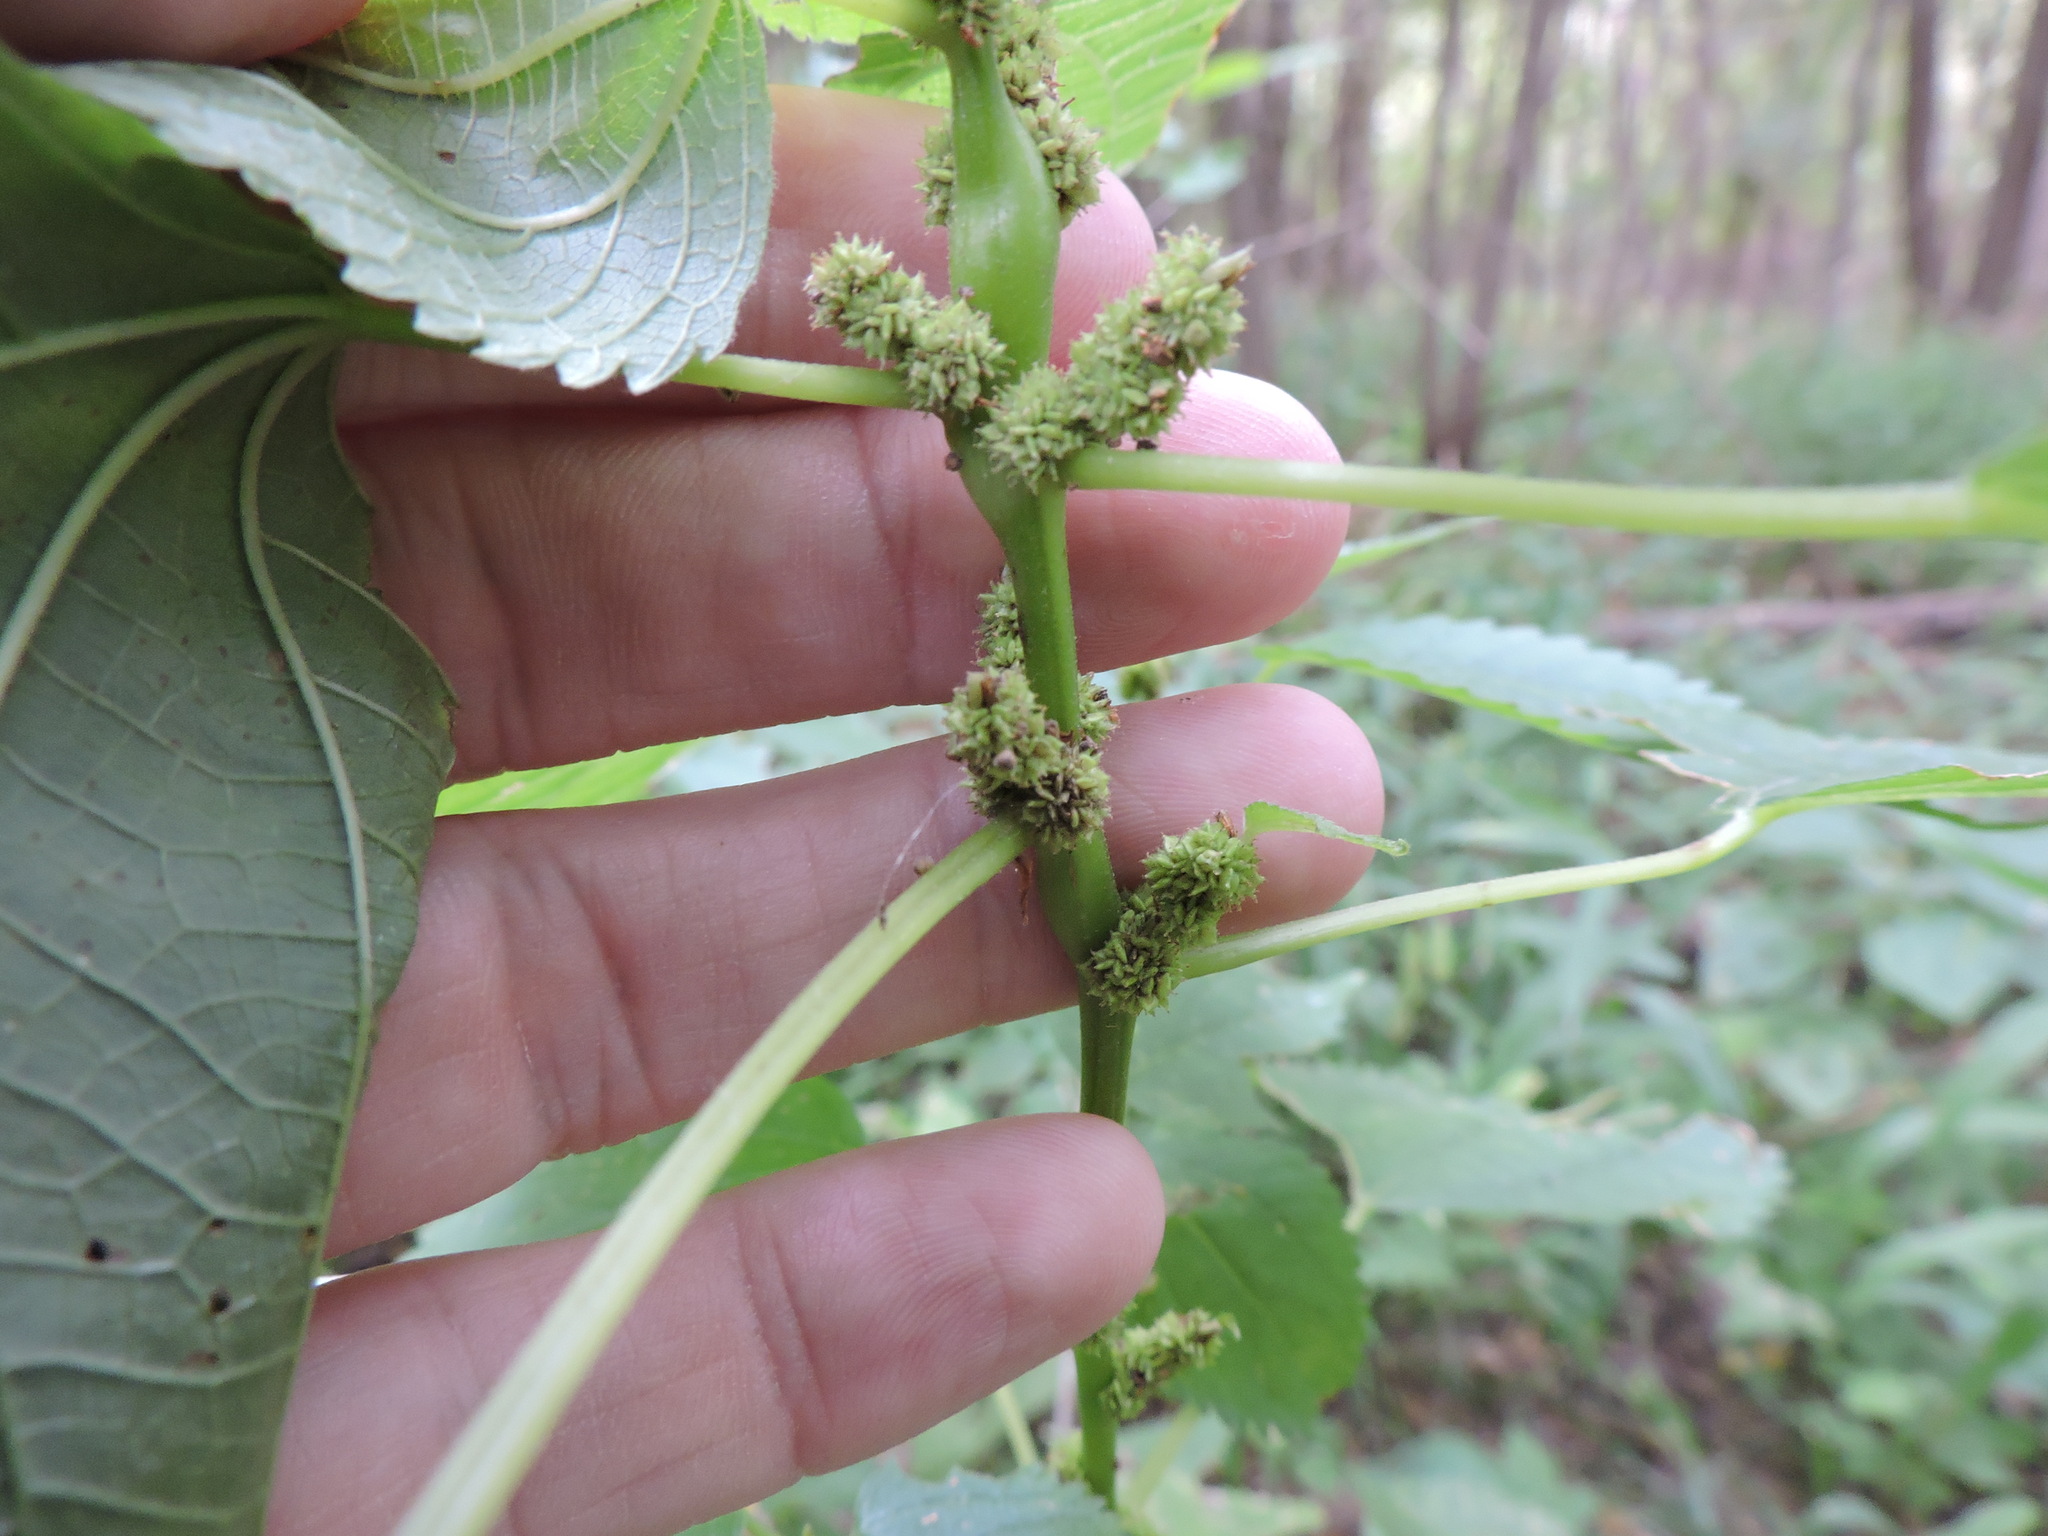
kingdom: Plantae
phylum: Tracheophyta
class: Magnoliopsida
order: Rosales
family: Urticaceae
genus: Boehmeria
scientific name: Boehmeria cylindrica
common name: Bog-hemp
